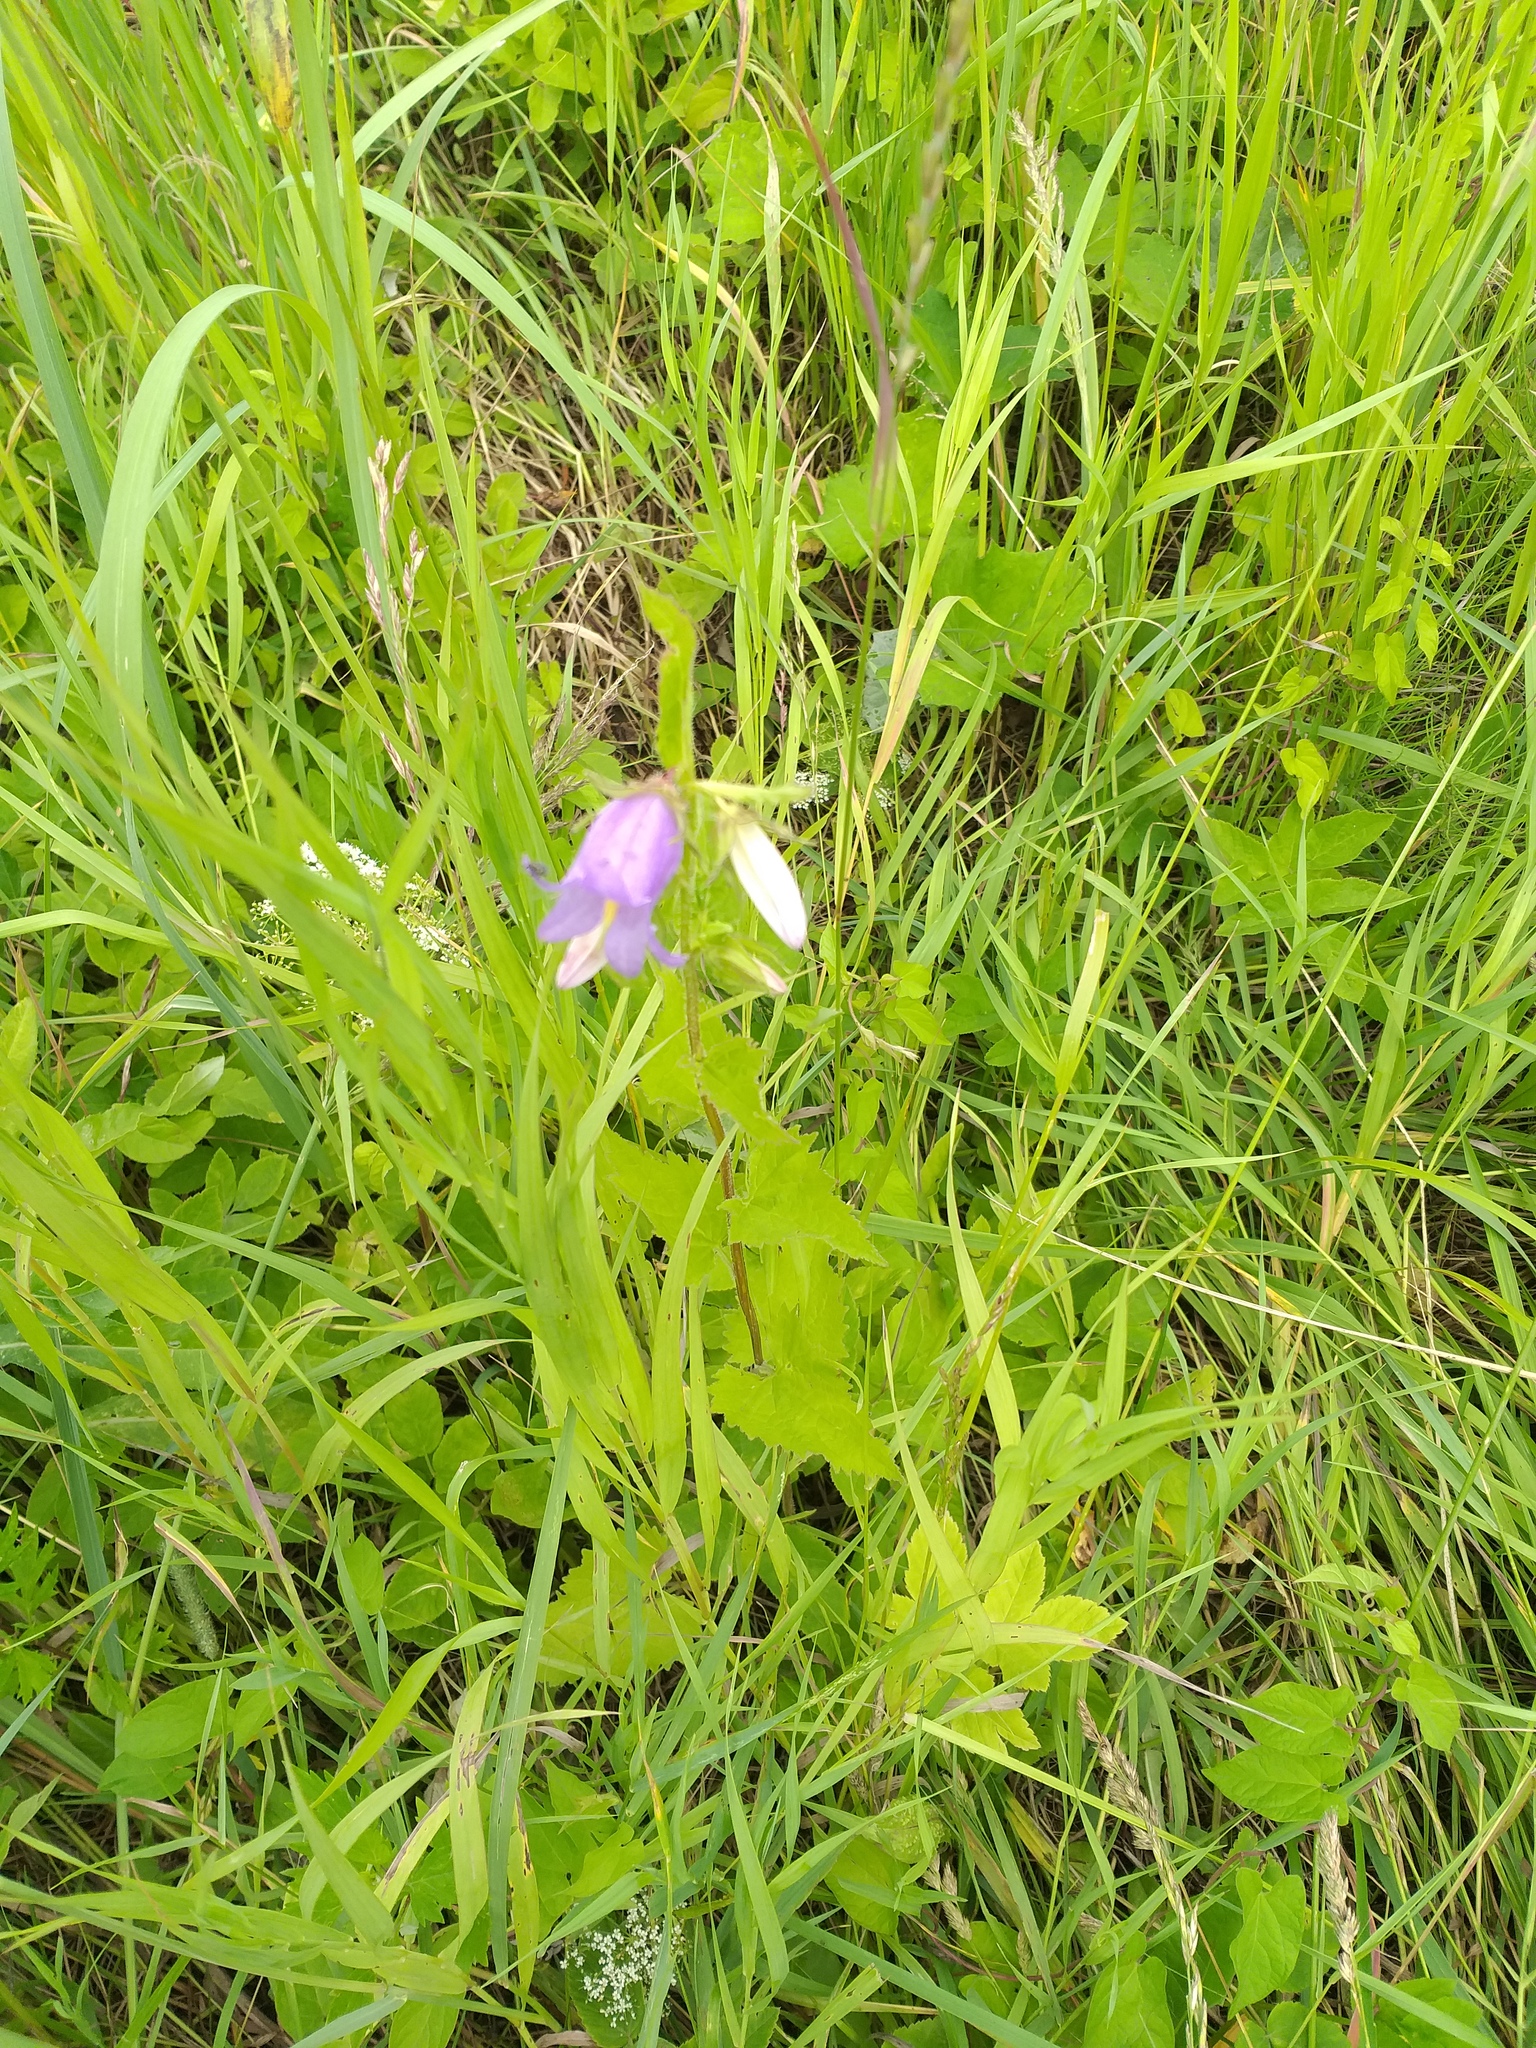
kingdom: Plantae
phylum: Tracheophyta
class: Magnoliopsida
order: Asterales
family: Campanulaceae
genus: Campanula
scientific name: Campanula trachelium
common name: Nettle-leaved bellflower
